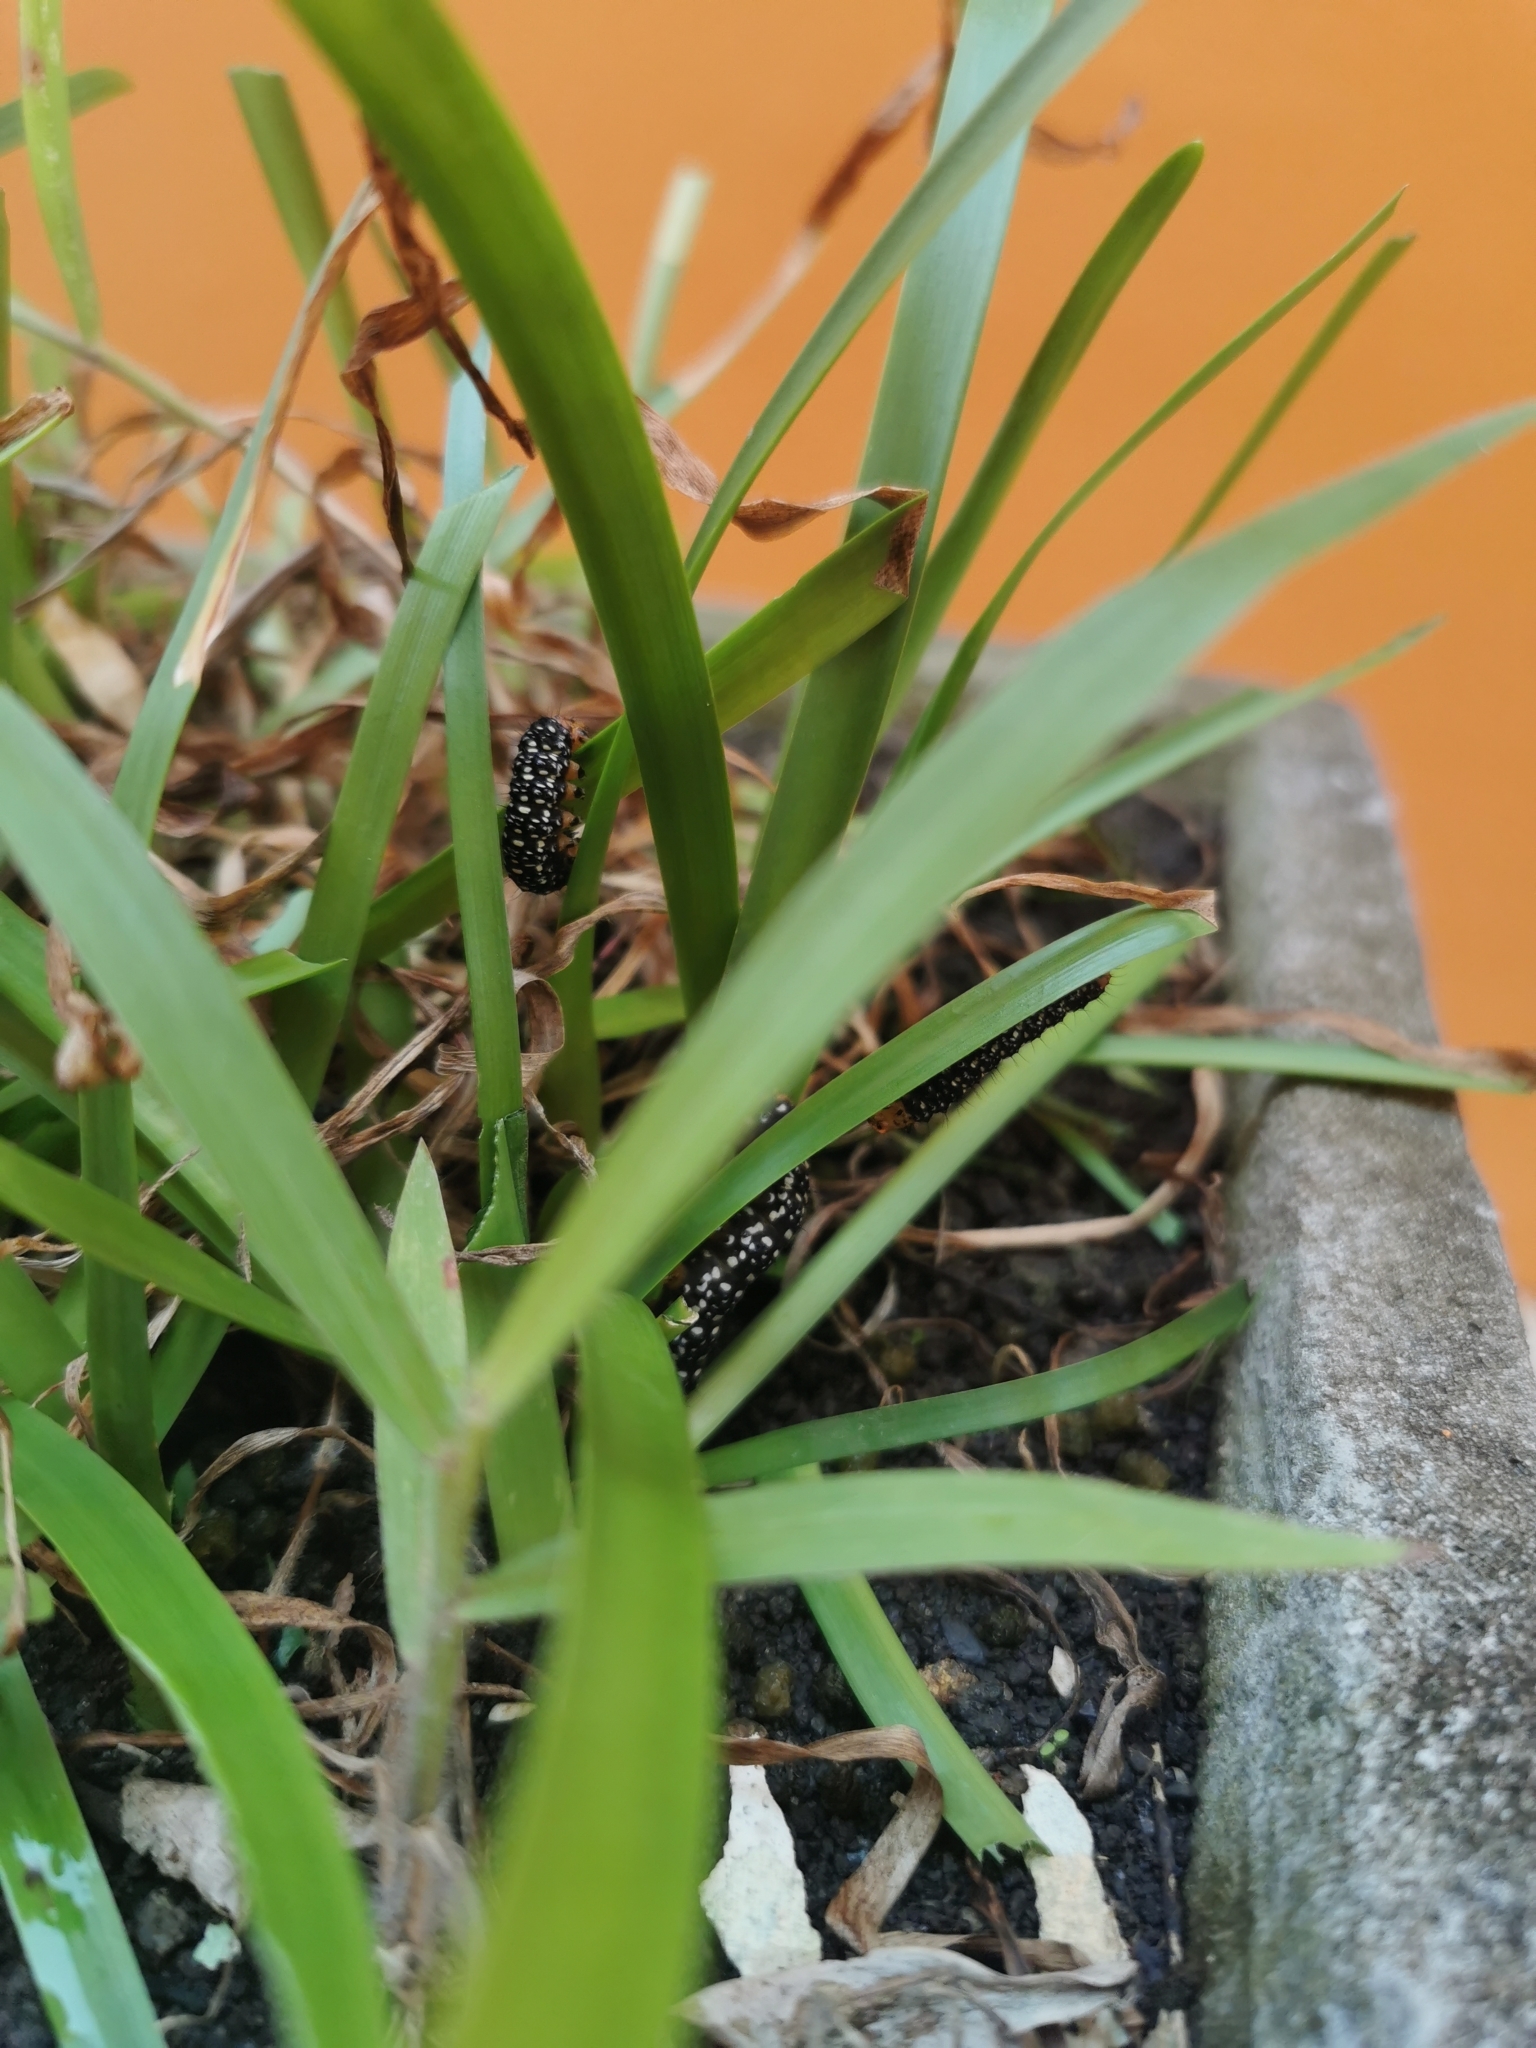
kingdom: Animalia
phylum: Arthropoda
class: Insecta
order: Lepidoptera
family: Noctuidae
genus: Xanthopastis
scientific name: Xanthopastis timais
